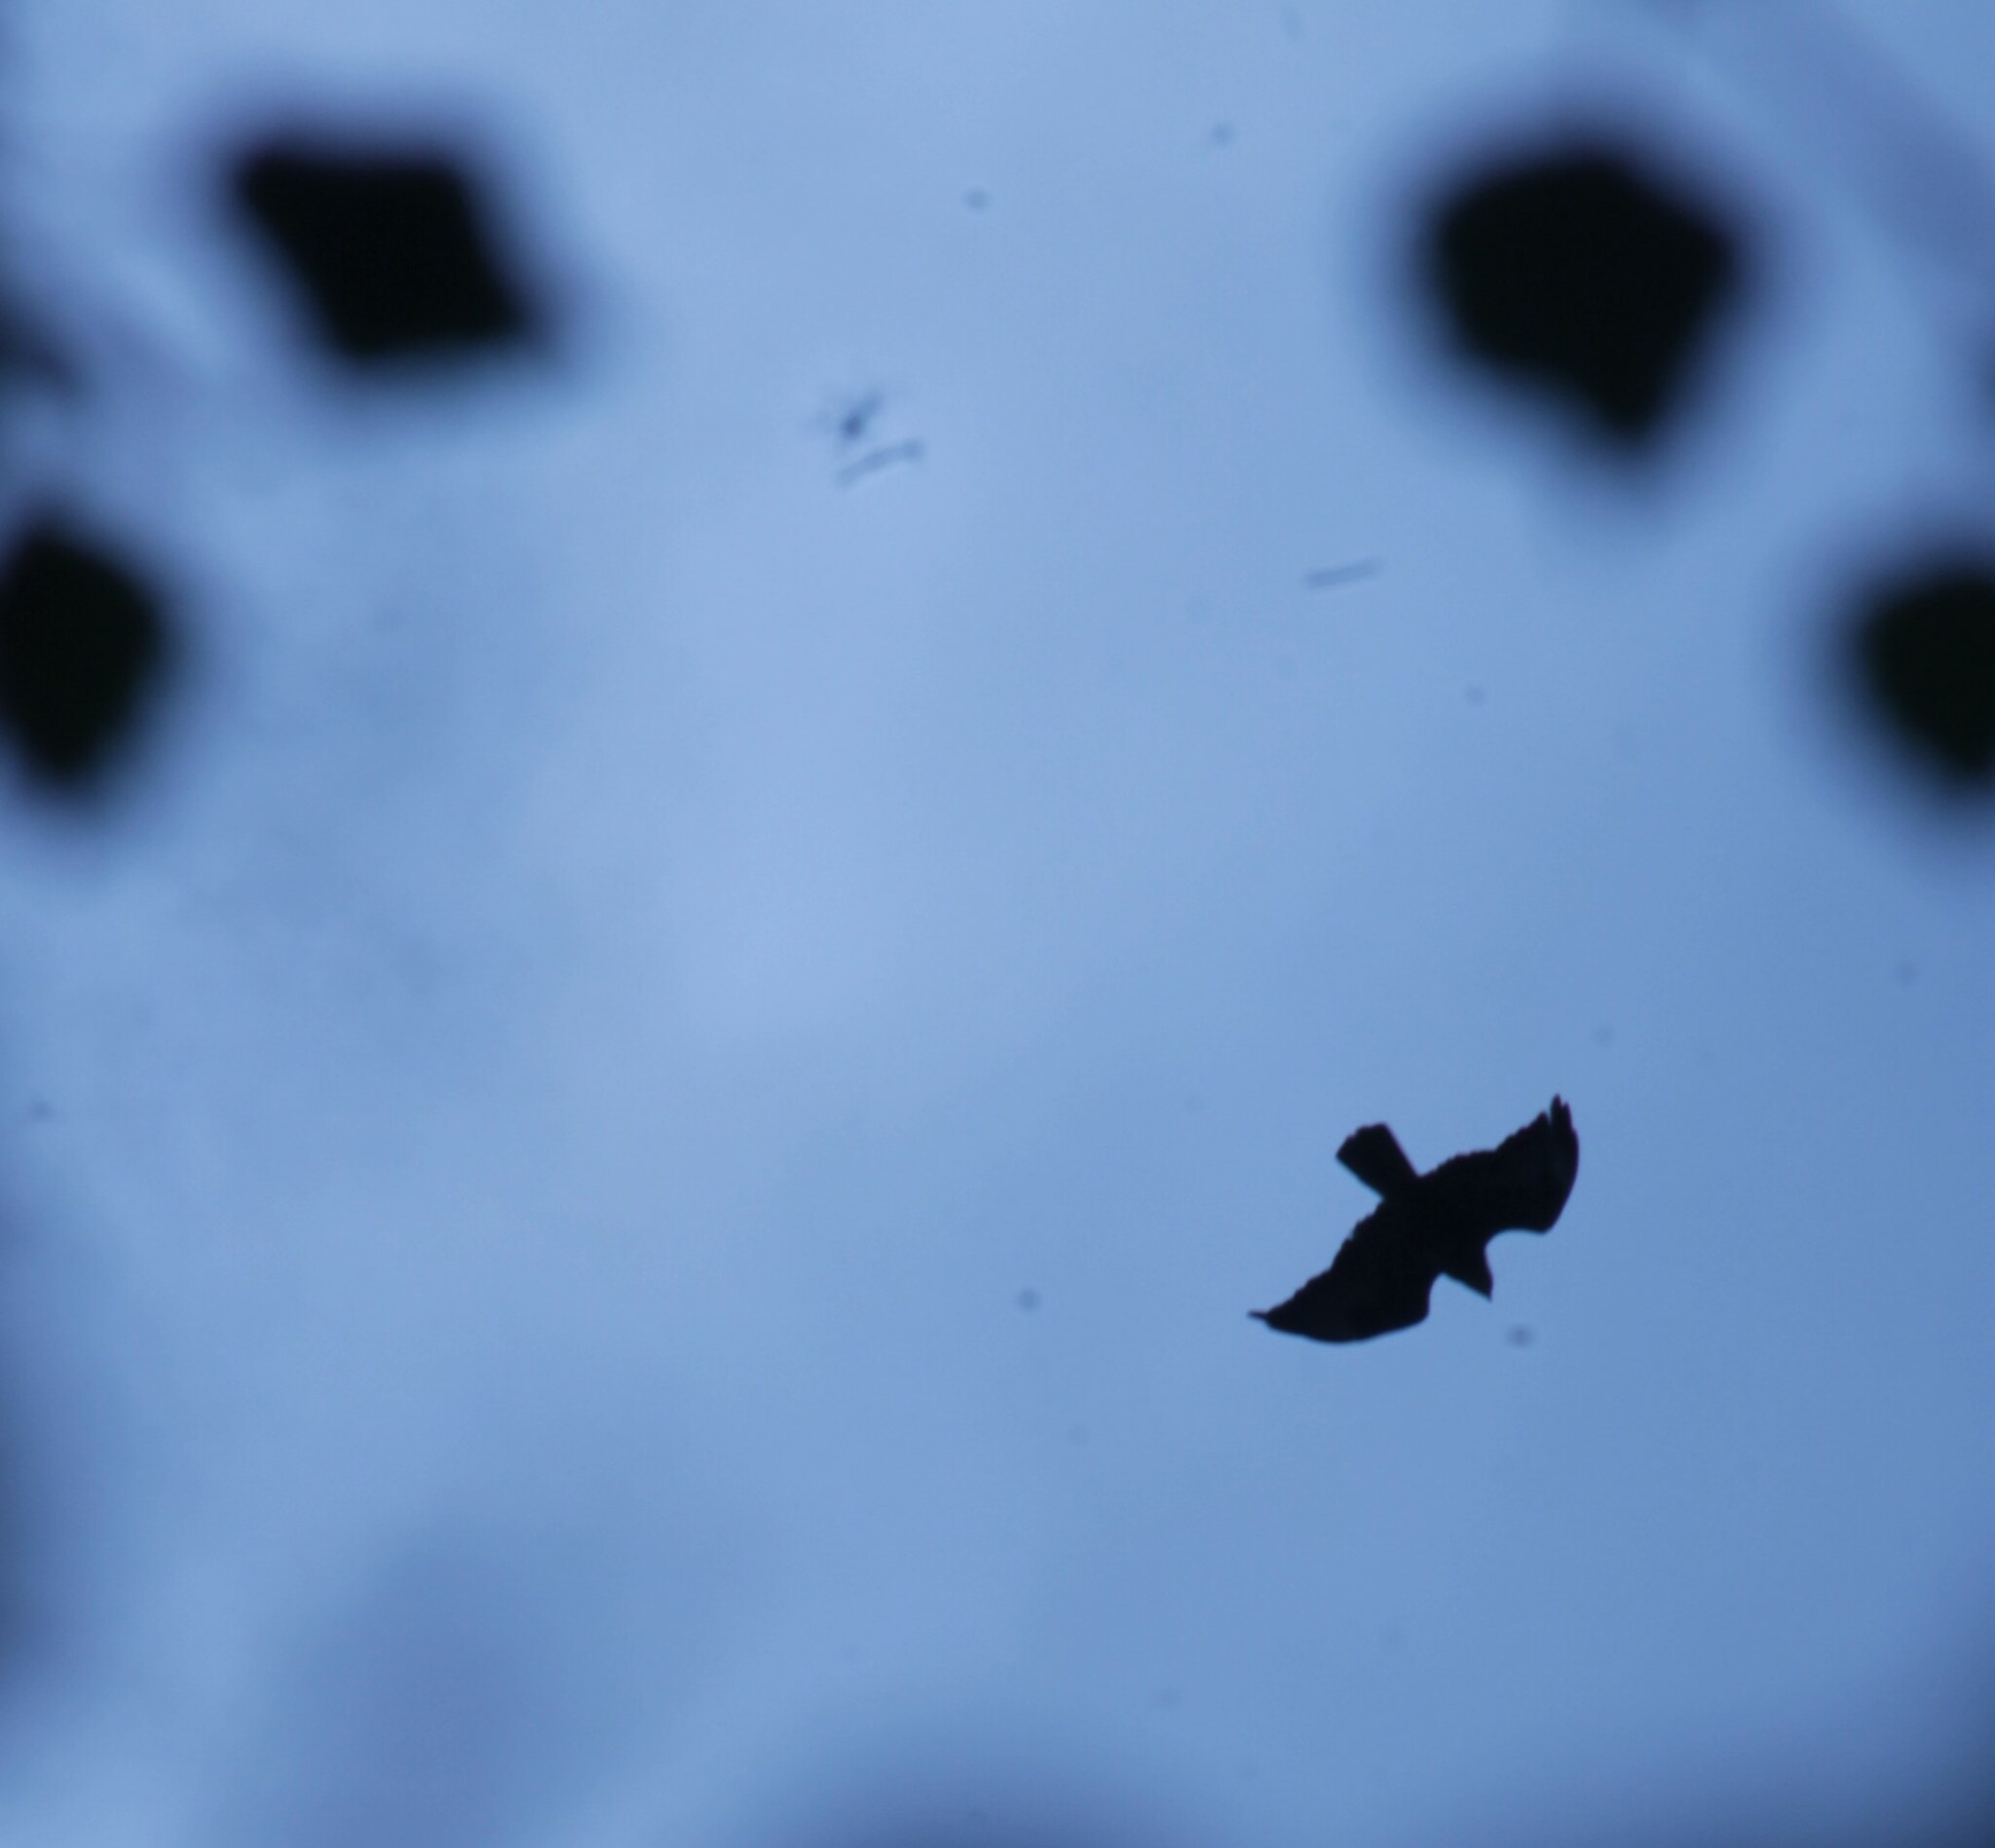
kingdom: Animalia
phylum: Chordata
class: Aves
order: Accipitriformes
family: Accipitridae
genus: Buteo
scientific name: Buteo buteo
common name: Common buzzard
